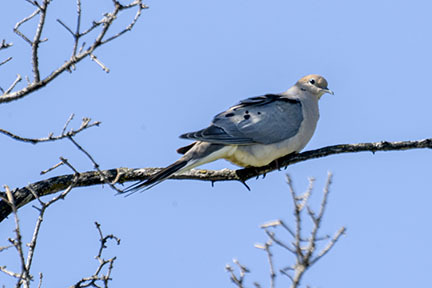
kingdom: Animalia
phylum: Chordata
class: Aves
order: Columbiformes
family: Columbidae
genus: Zenaida
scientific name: Zenaida macroura
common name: Mourning dove
